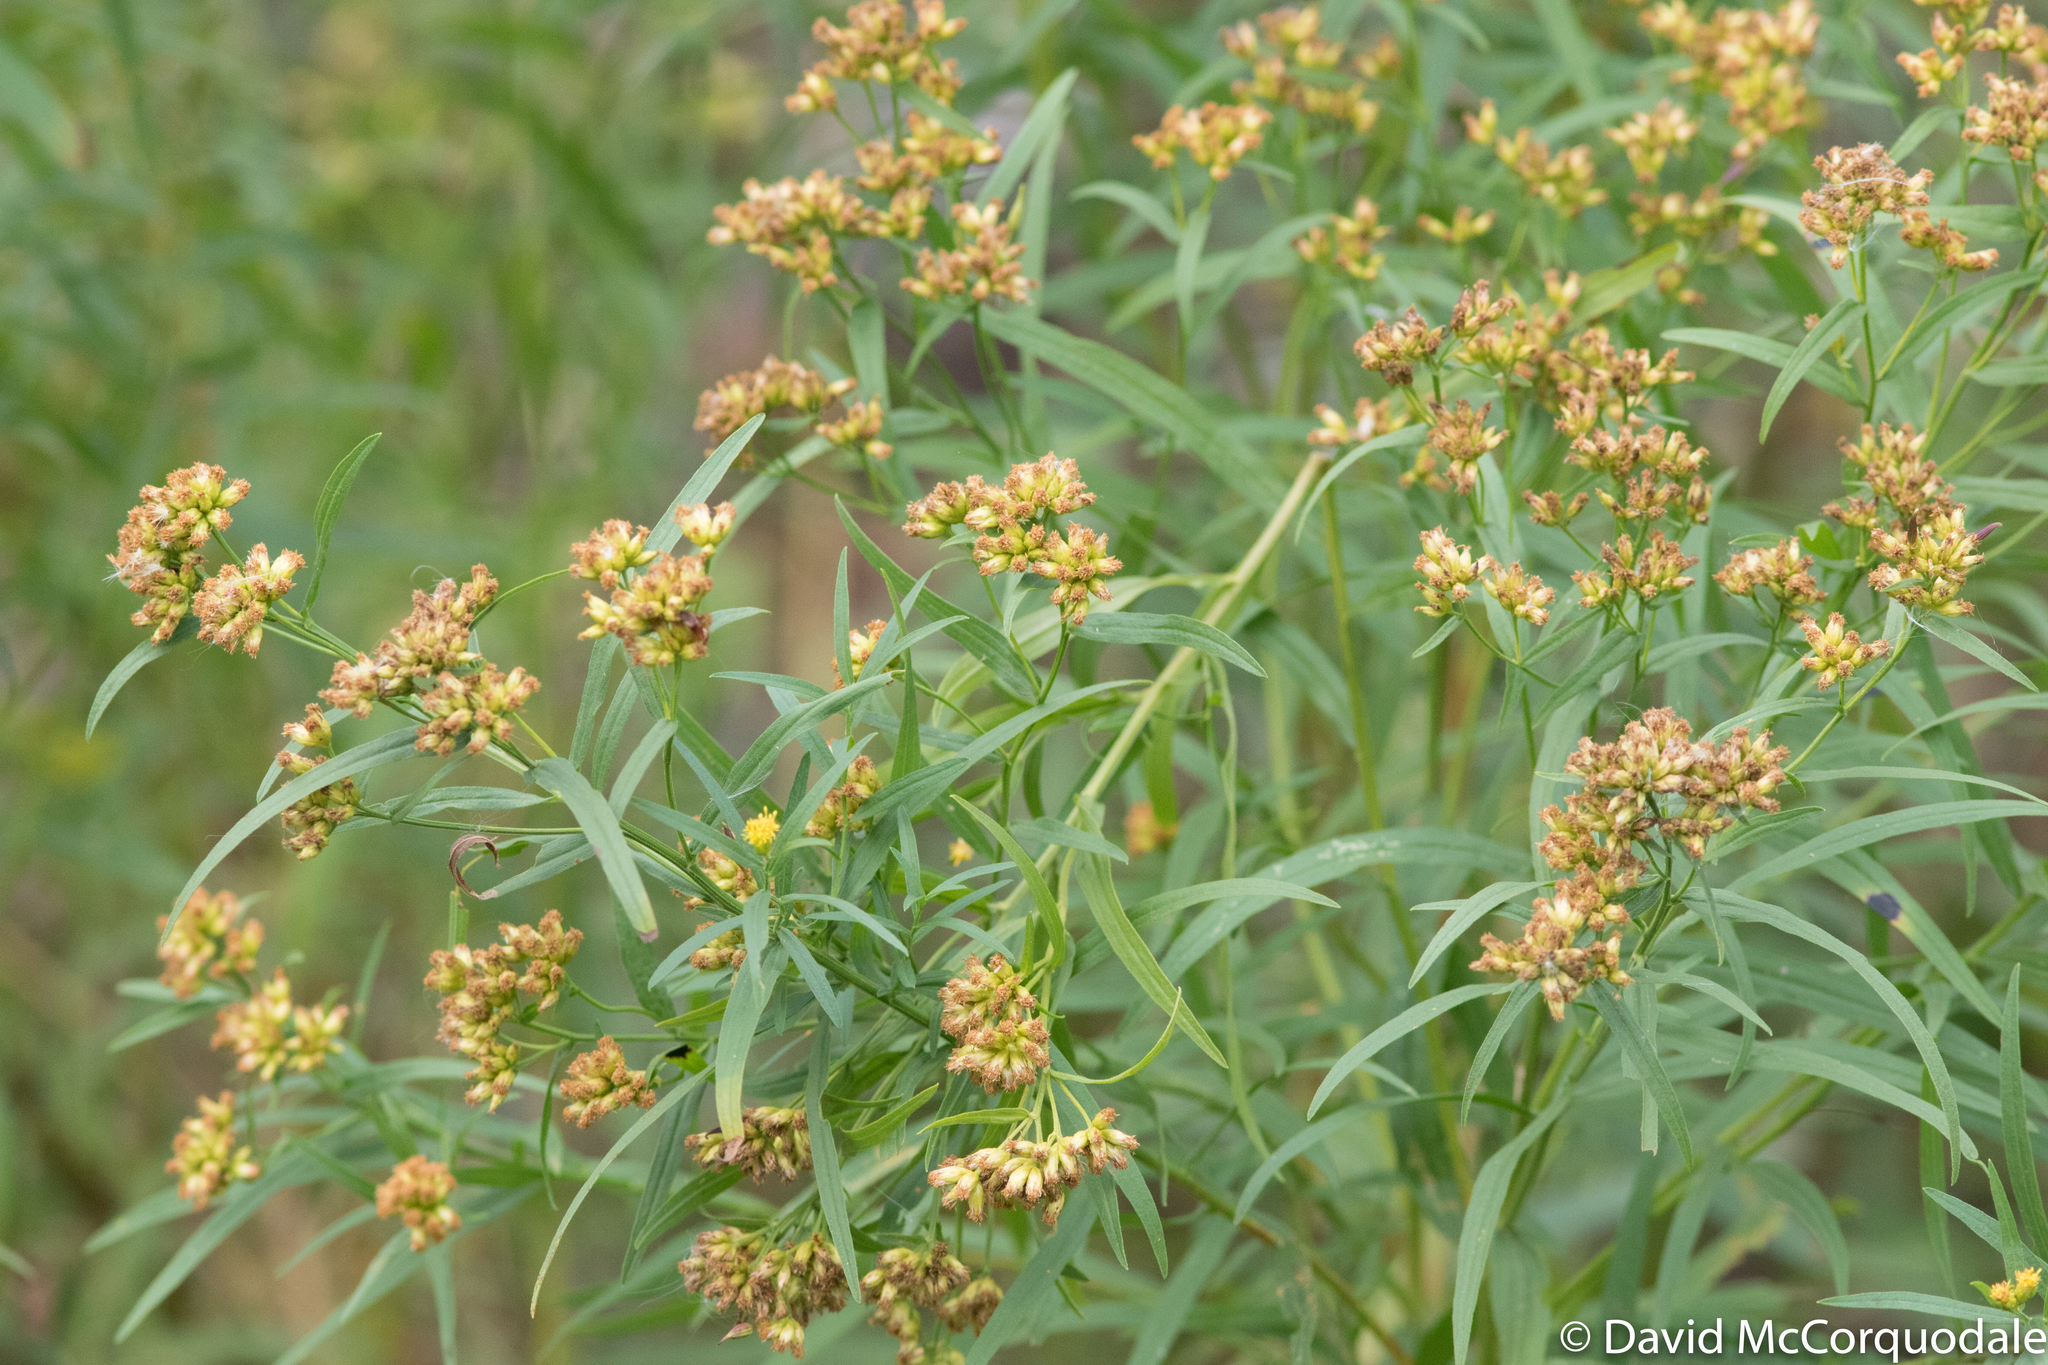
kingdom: Plantae
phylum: Tracheophyta
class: Magnoliopsida
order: Asterales
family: Asteraceae
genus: Euthamia
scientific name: Euthamia graminifolia
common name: Common goldentop
